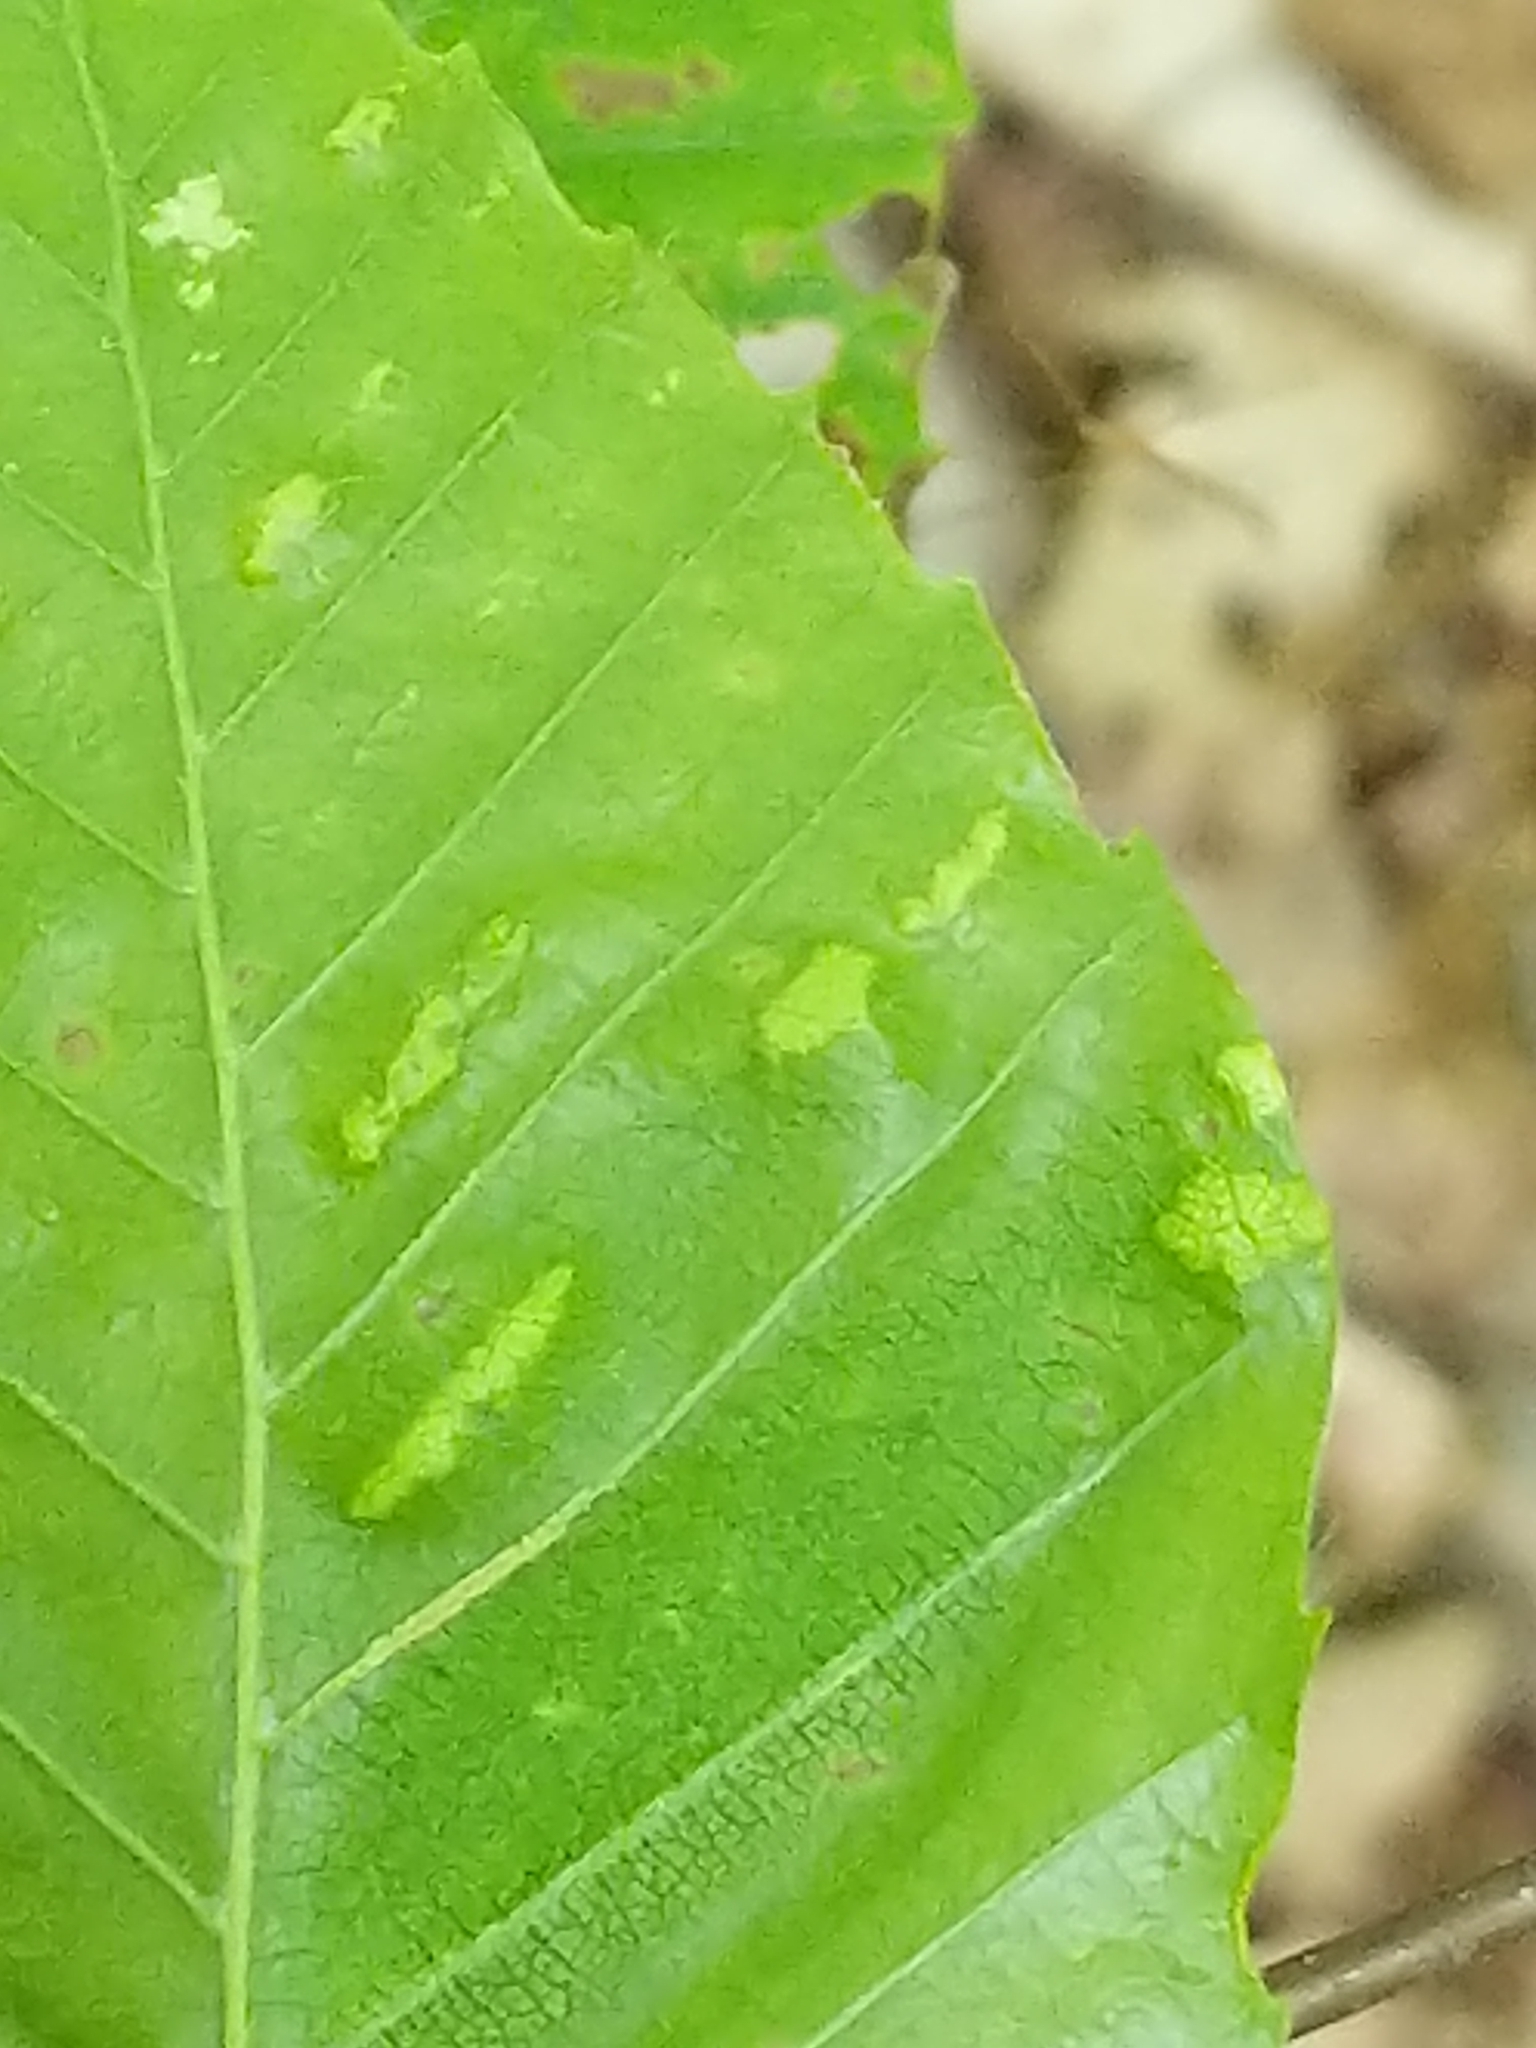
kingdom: Animalia
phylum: Arthropoda
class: Arachnida
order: Trombidiformes
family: Eriophyidae
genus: Acalitus
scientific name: Acalitus
